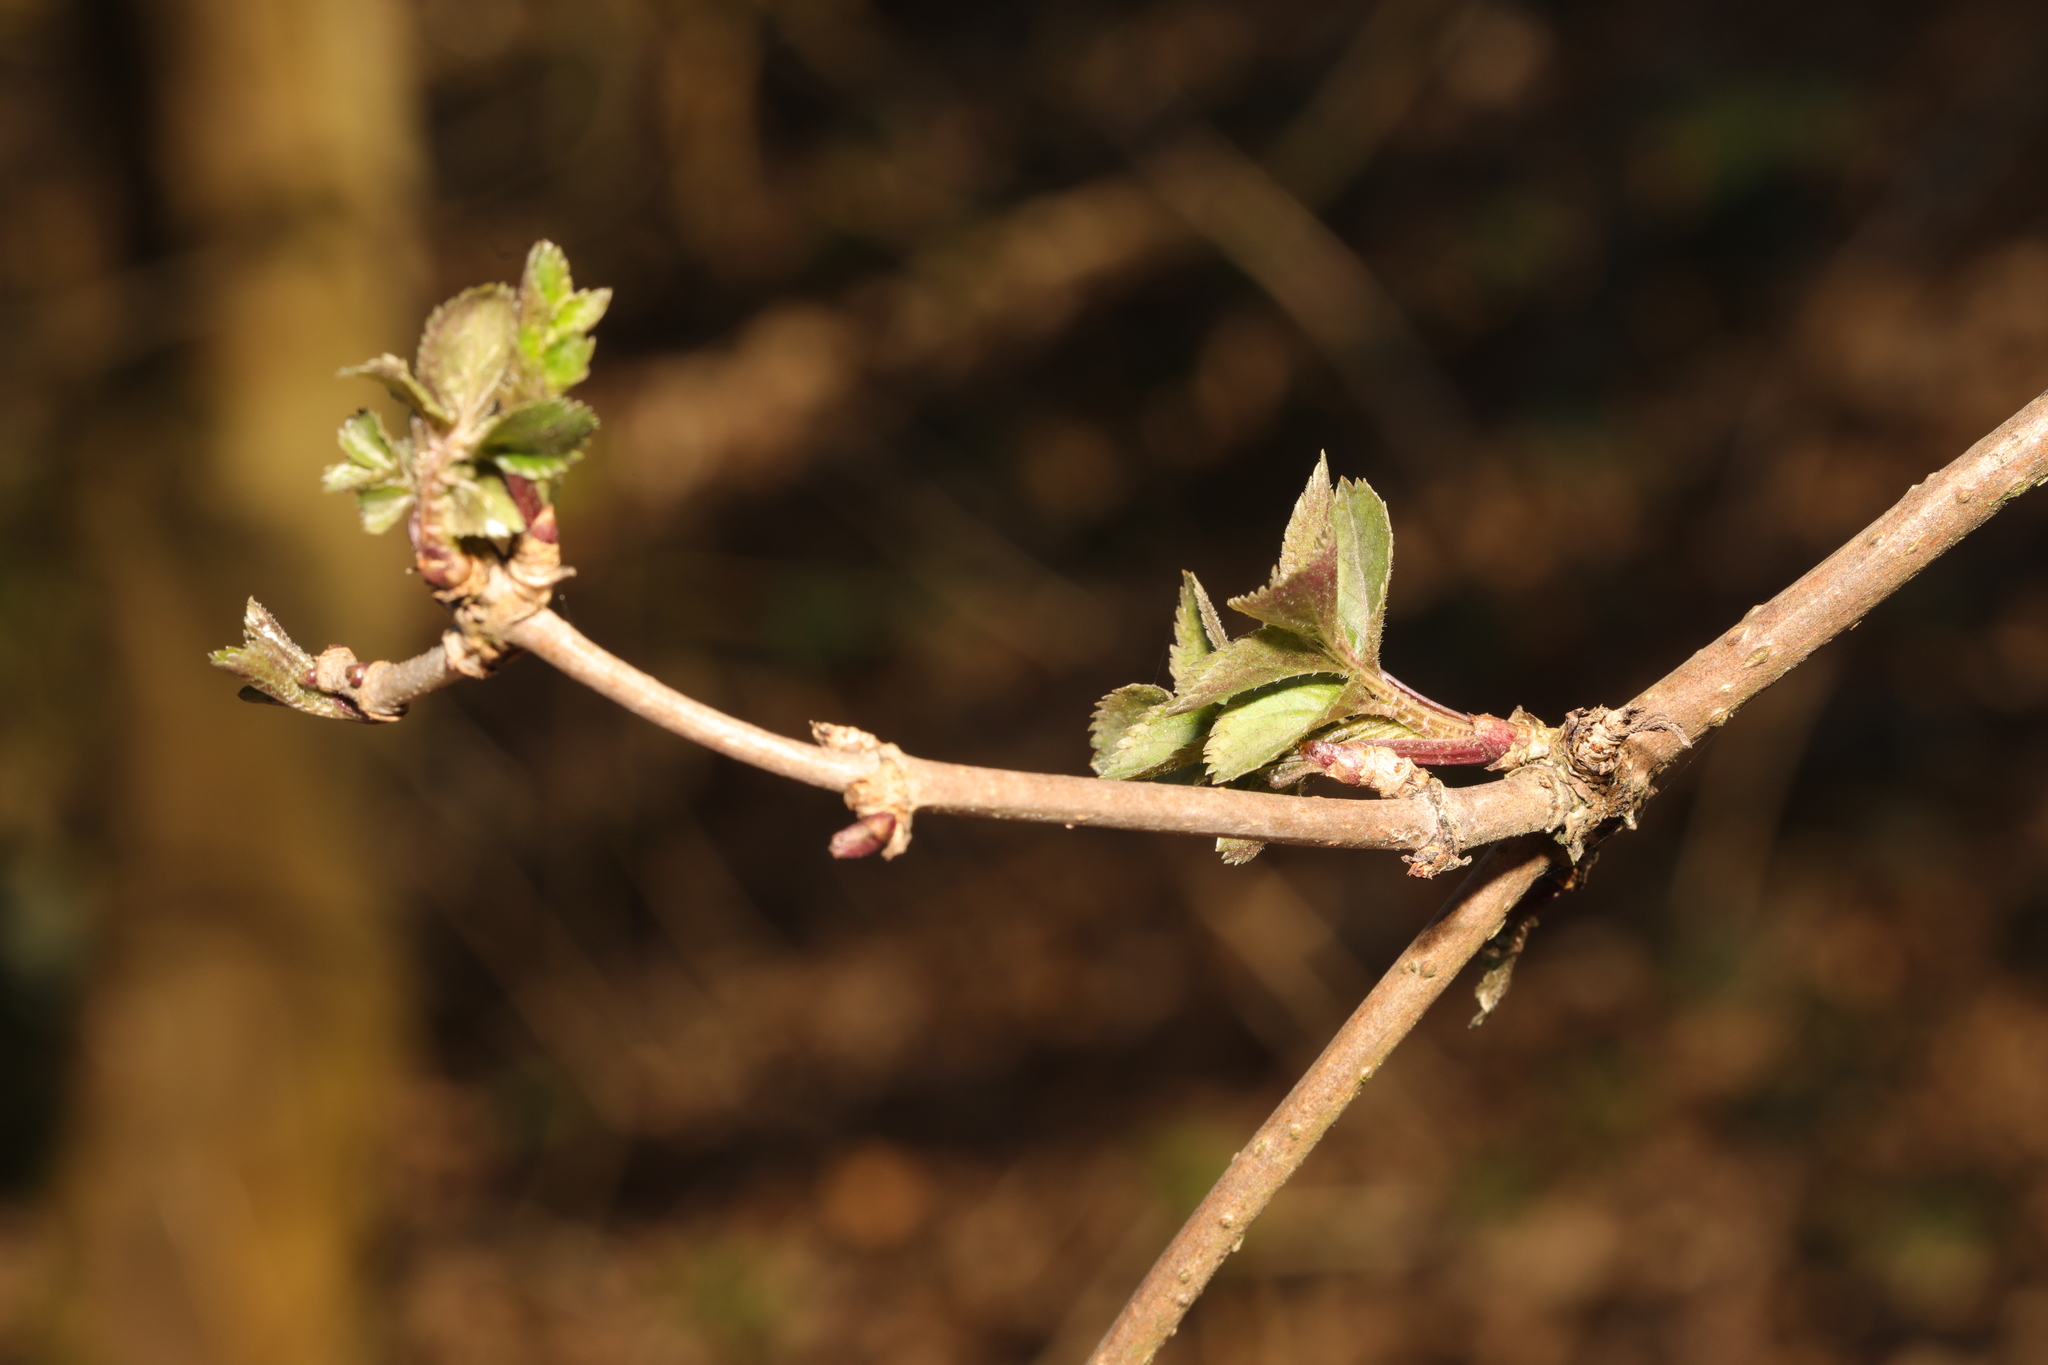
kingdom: Plantae
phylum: Tracheophyta
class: Magnoliopsida
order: Dipsacales
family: Viburnaceae
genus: Sambucus
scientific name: Sambucus nigra
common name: Elder
